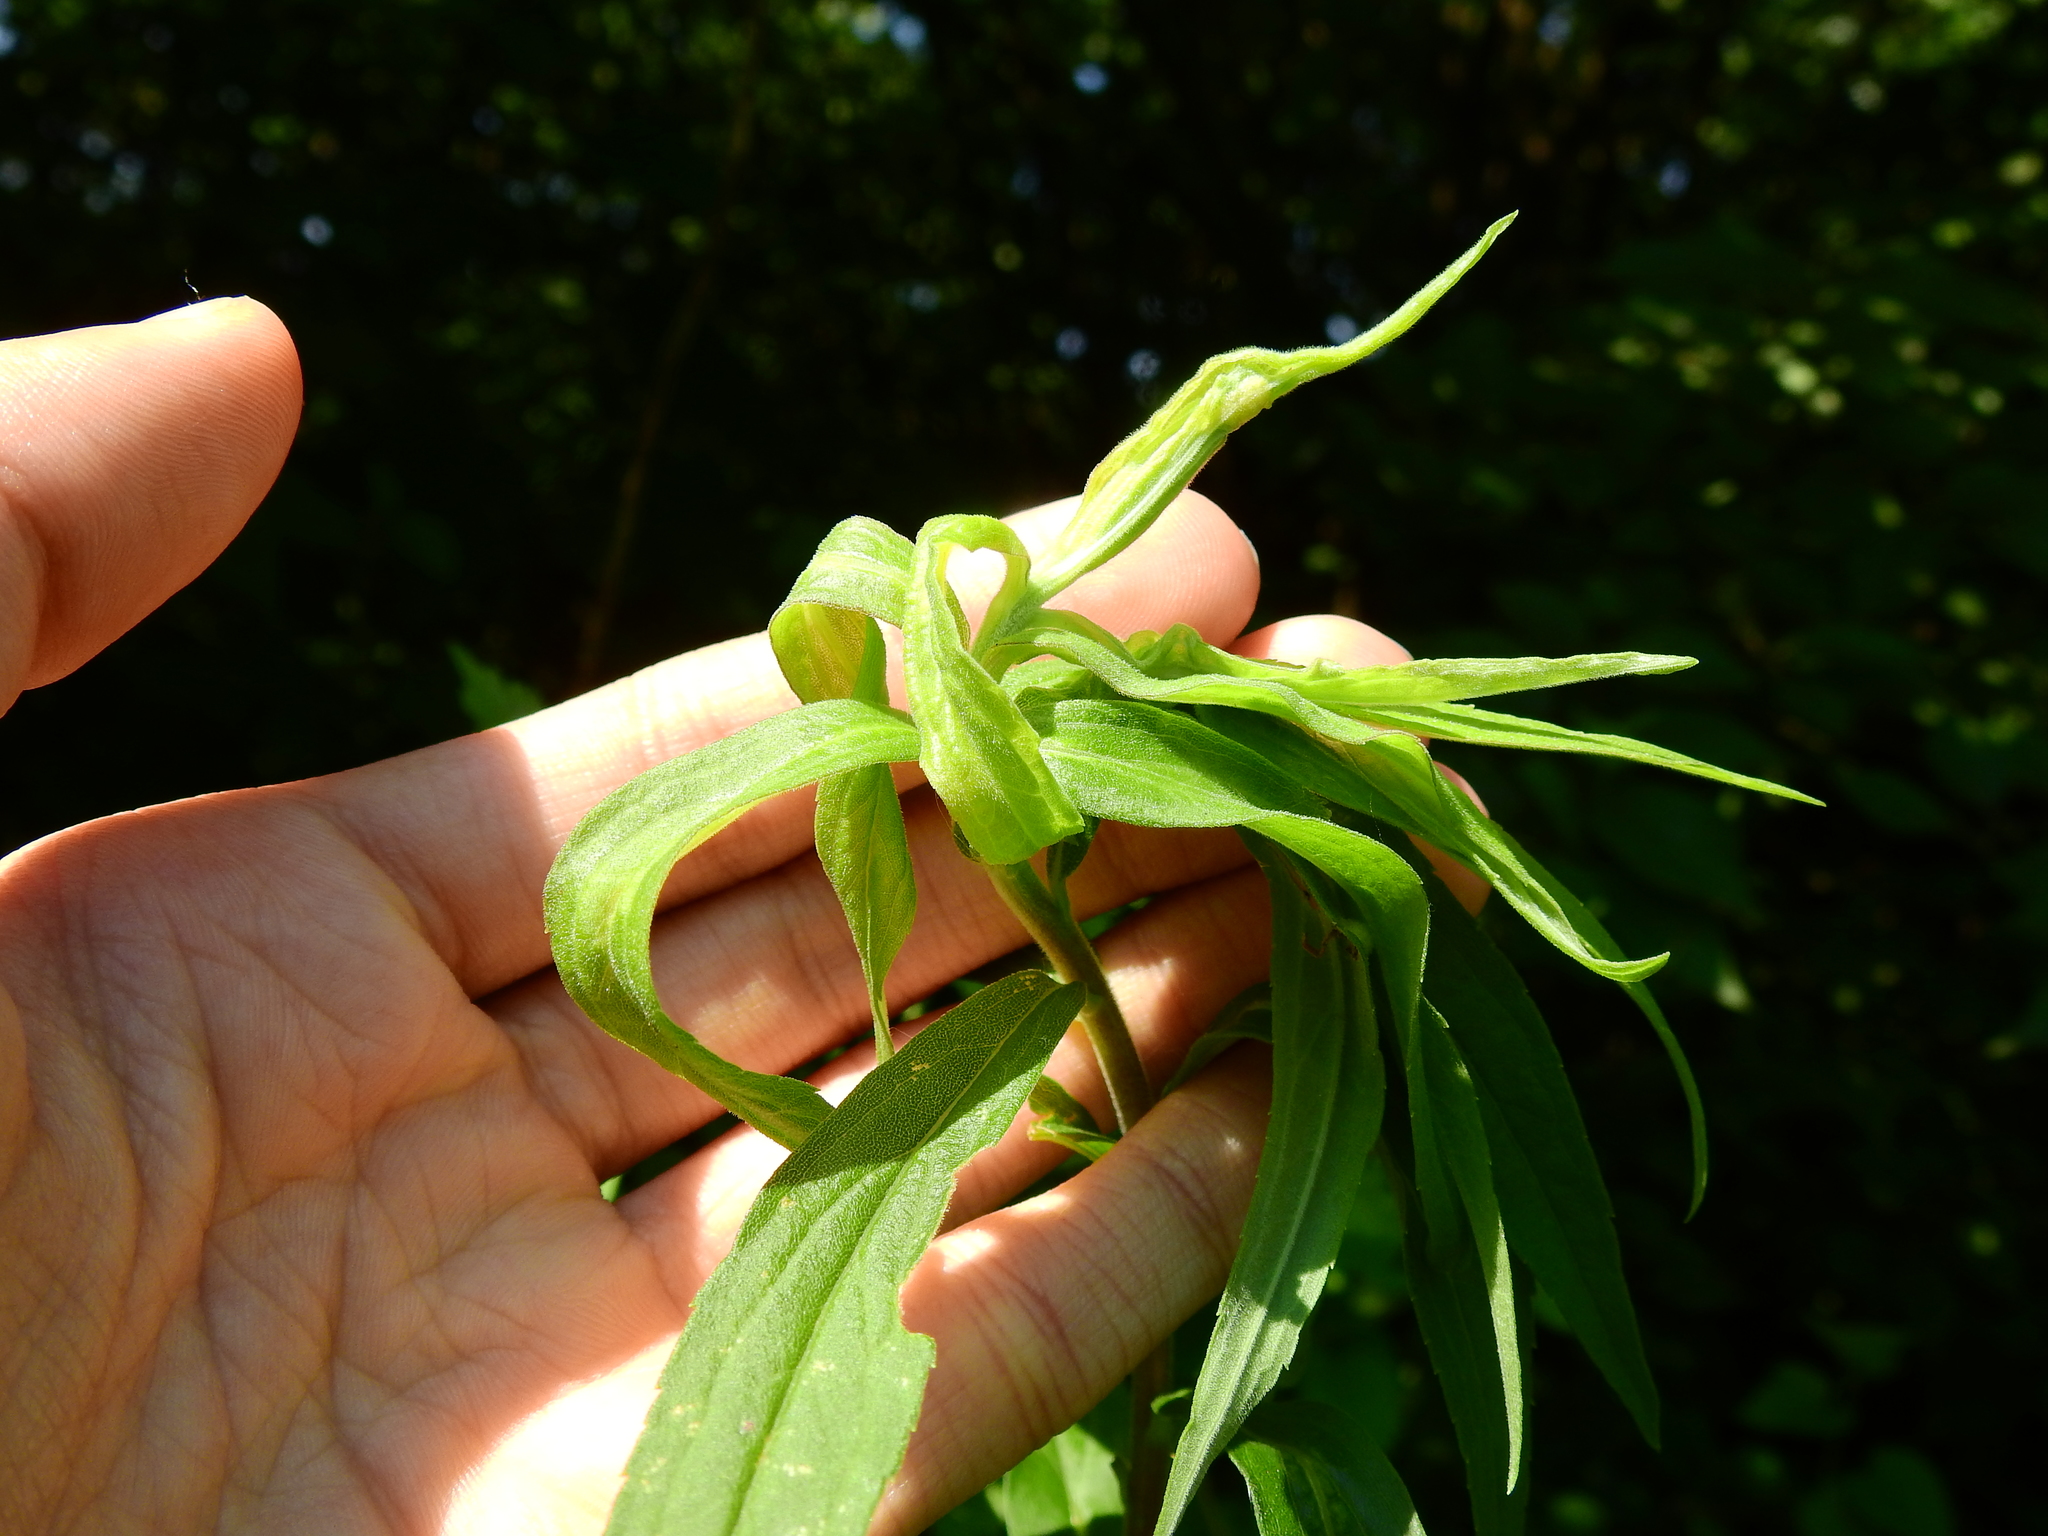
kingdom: Animalia
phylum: Arthropoda
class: Insecta
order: Diptera
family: Cecidomyiidae
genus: Asphondylia
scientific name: Asphondylia solidaginis
